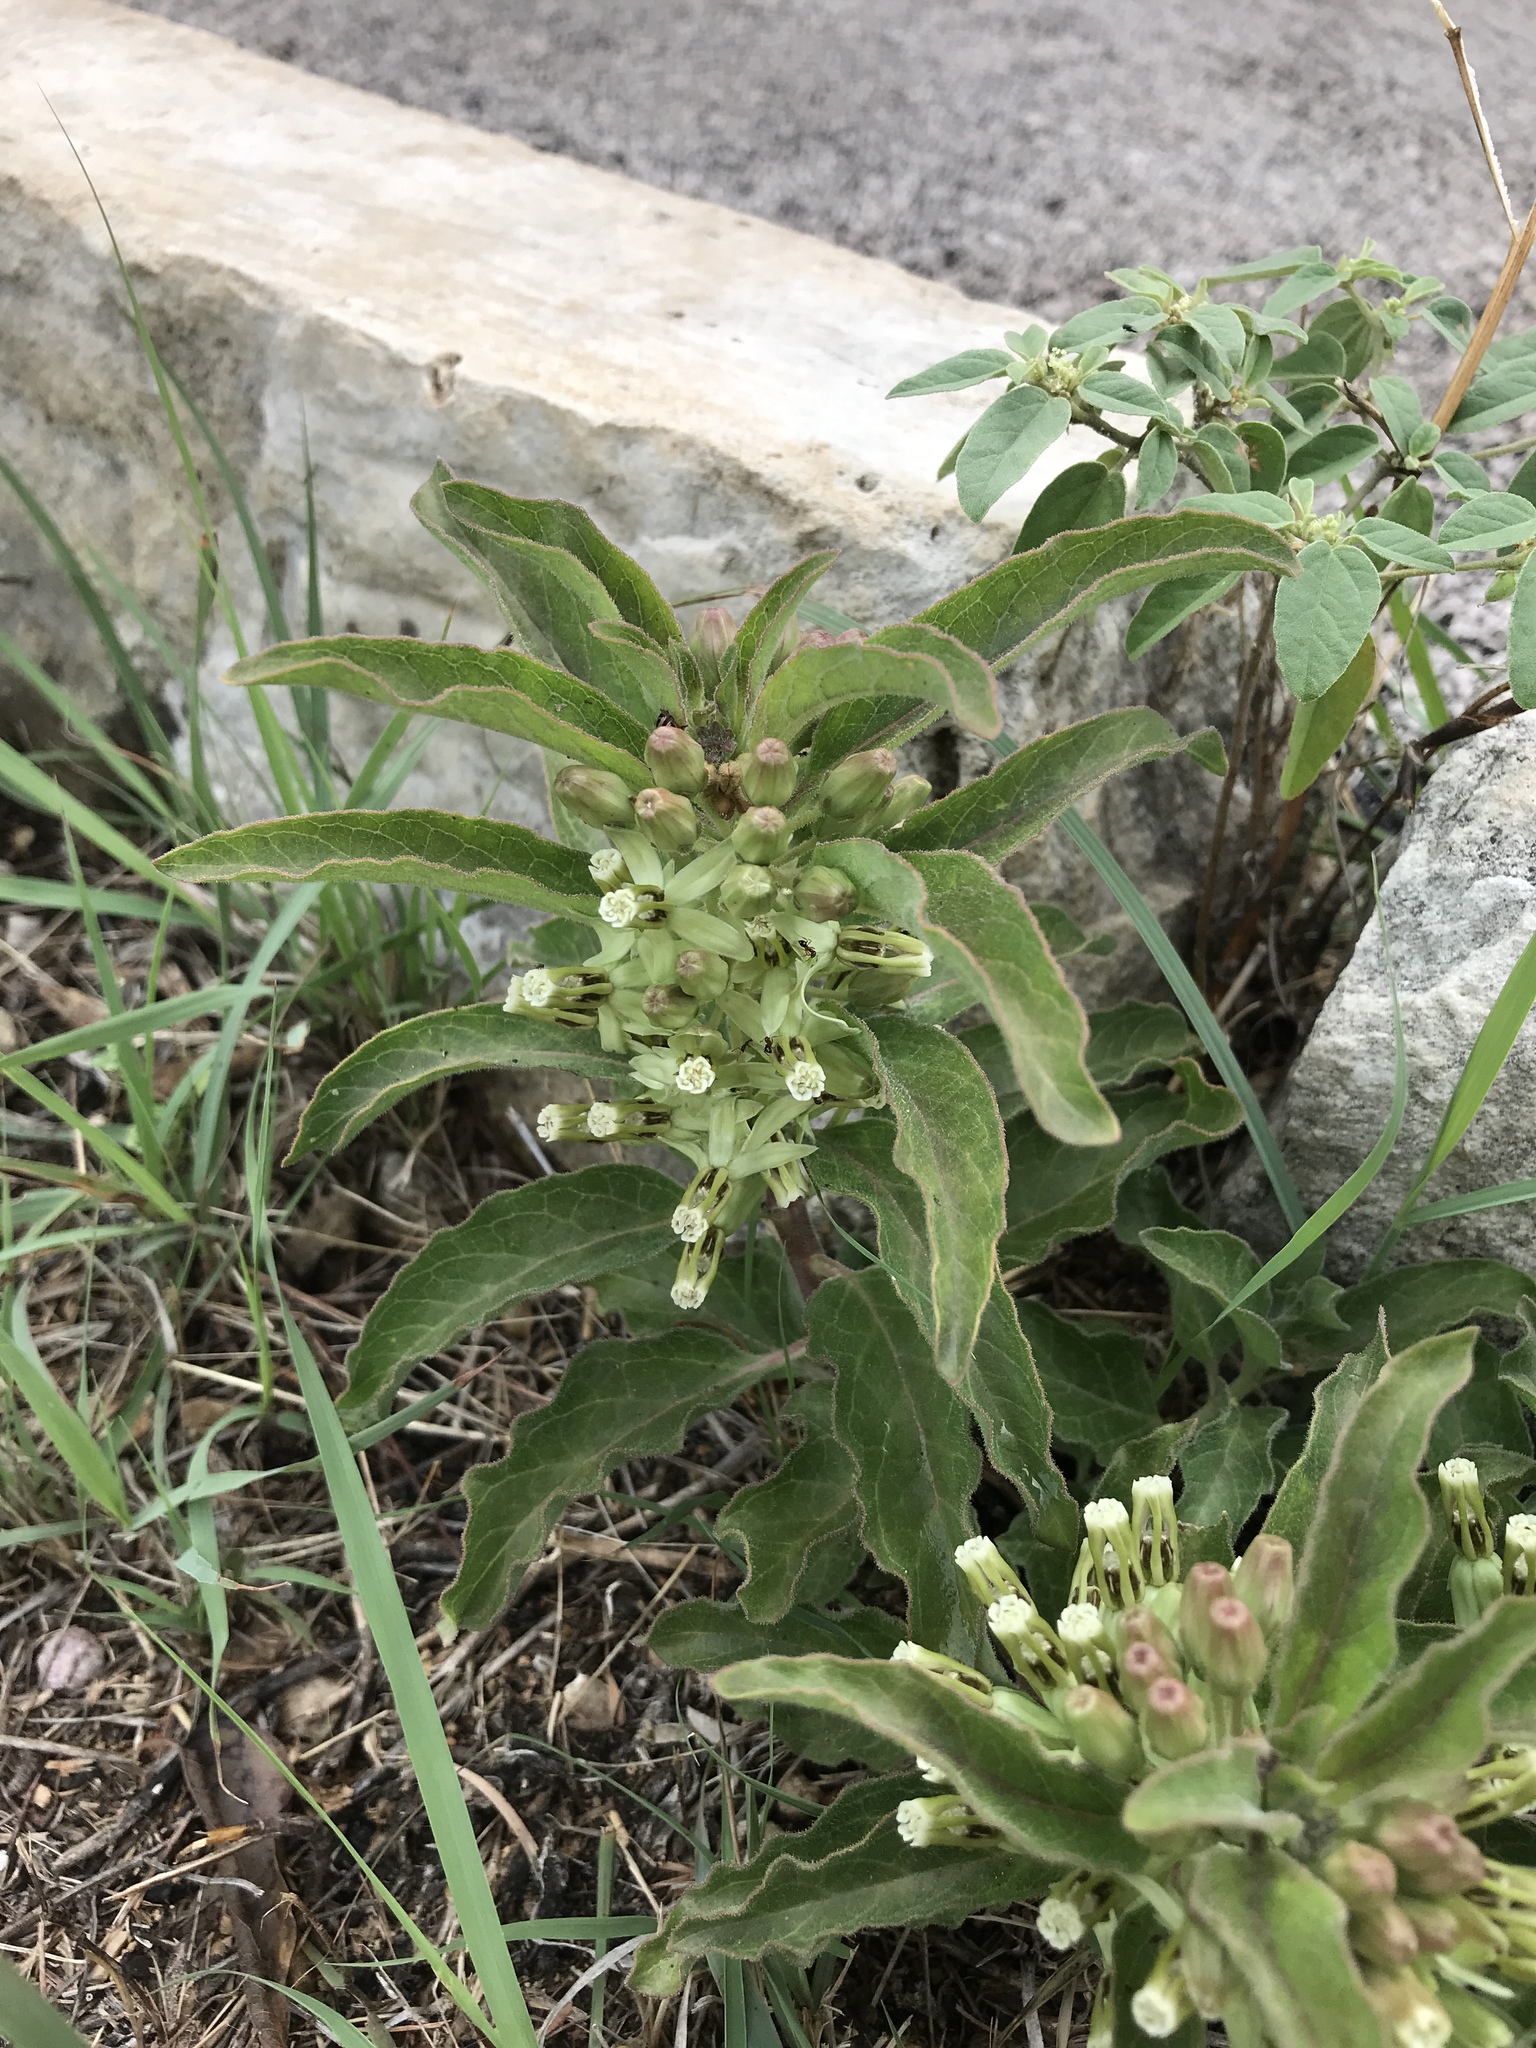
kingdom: Plantae
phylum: Tracheophyta
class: Magnoliopsida
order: Gentianales
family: Apocynaceae
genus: Asclepias
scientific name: Asclepias oenotheroides
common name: Zizotes milkweed
